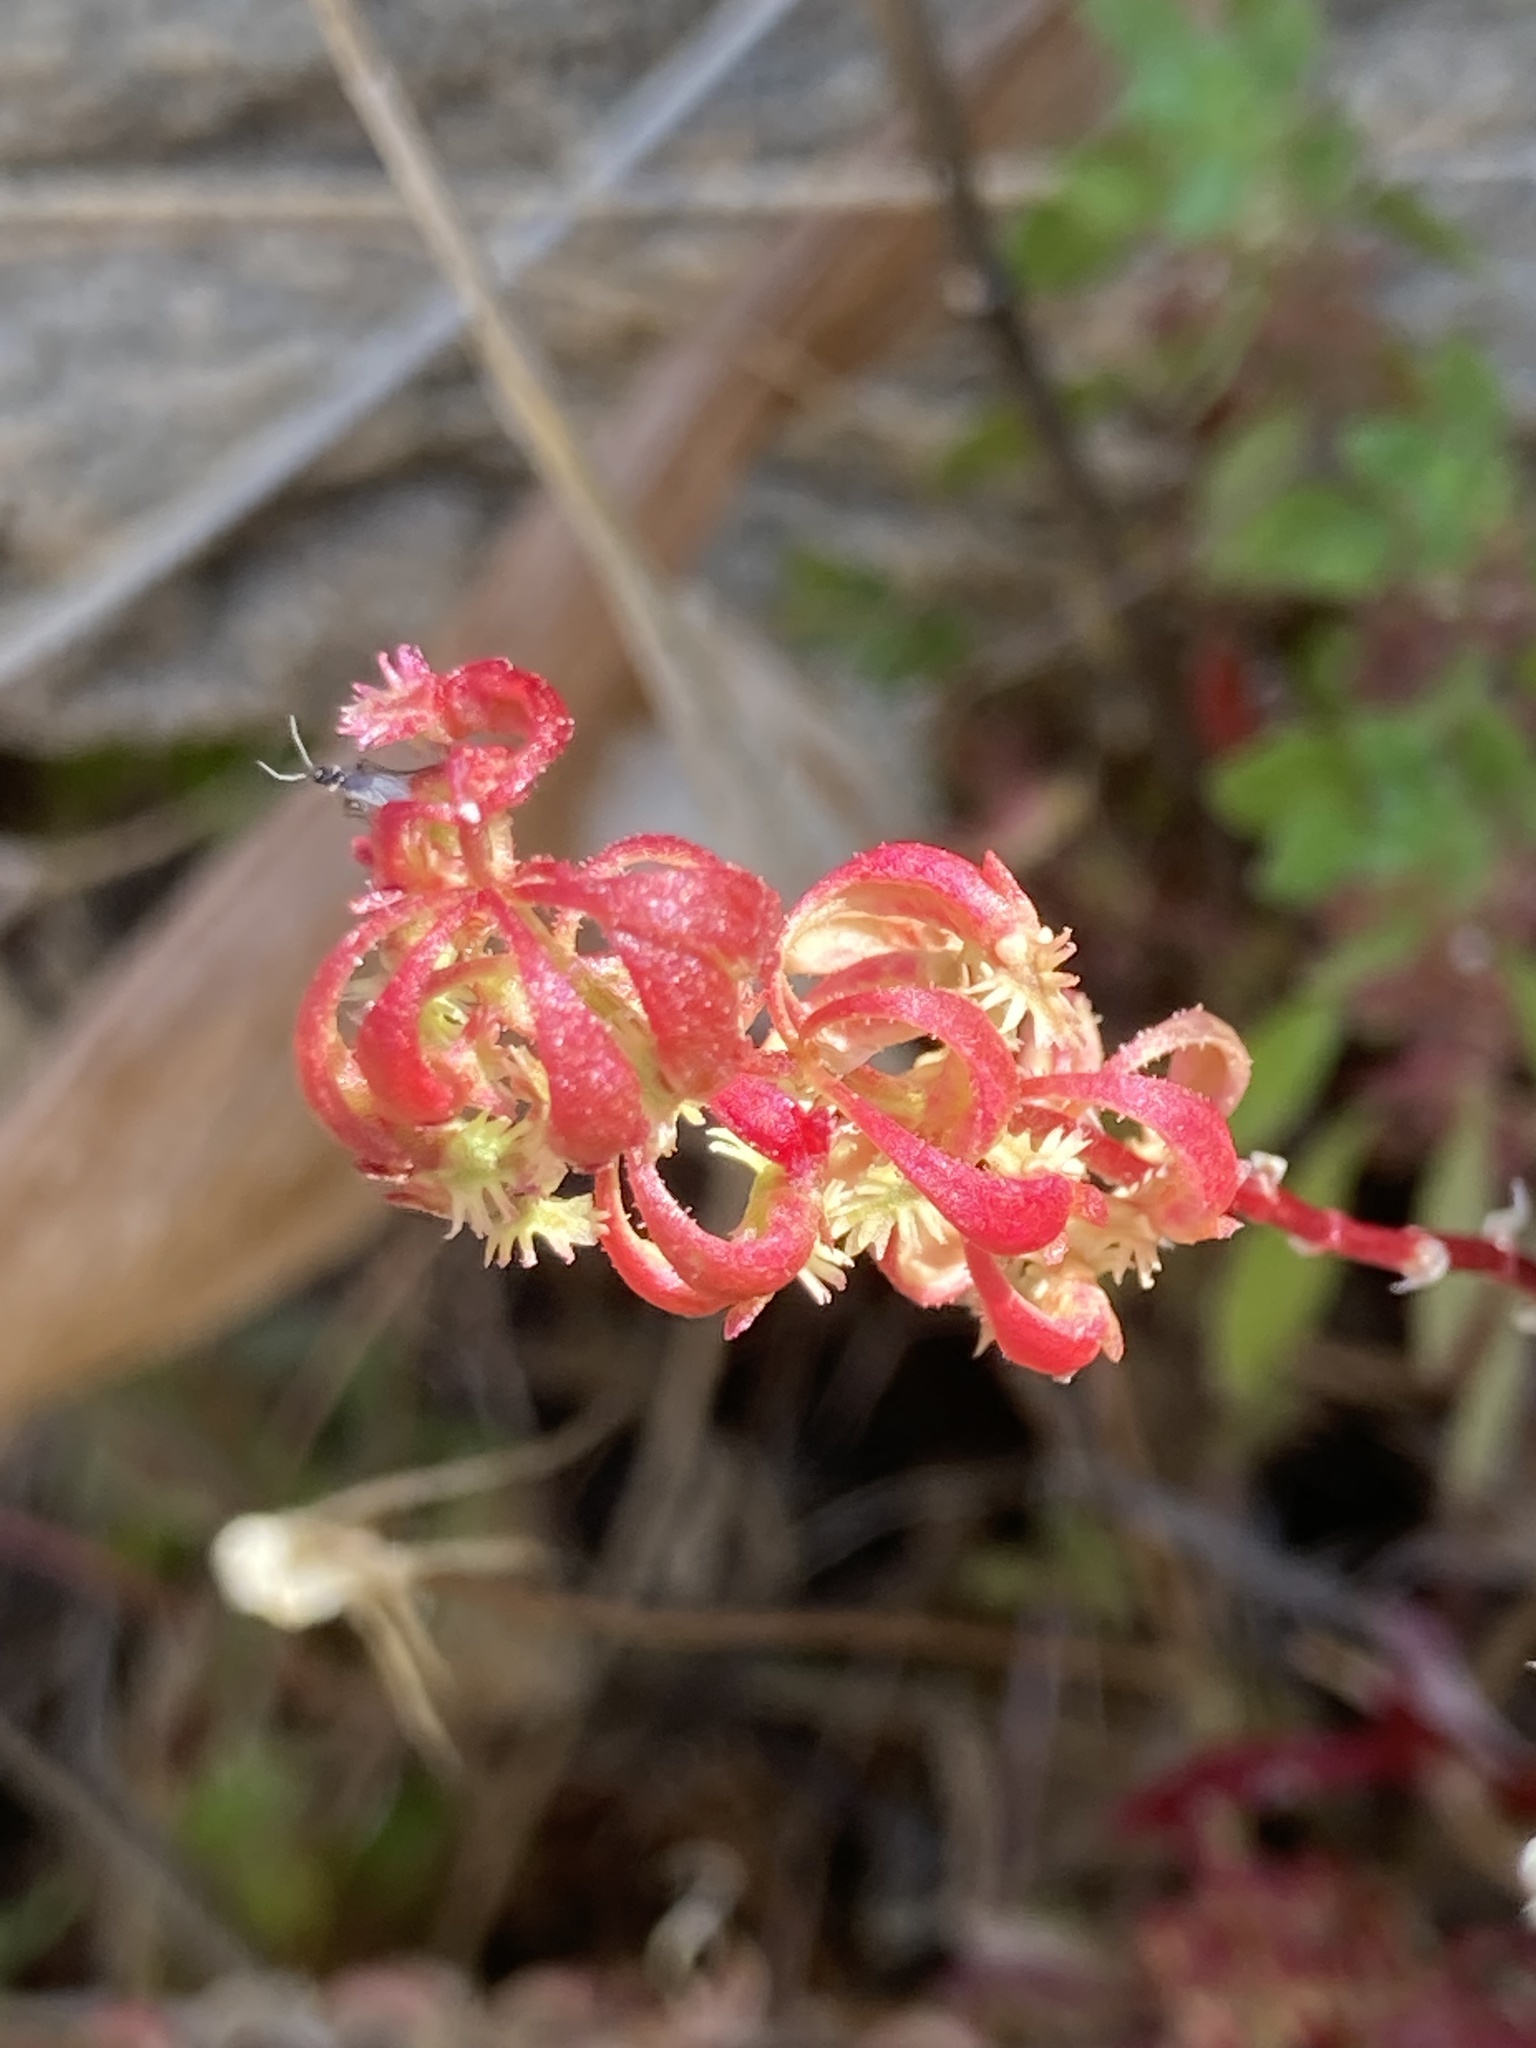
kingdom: Plantae
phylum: Tracheophyta
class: Magnoliopsida
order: Caryophyllales
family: Polygonaceae
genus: Rumex
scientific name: Rumex bucephalophorus
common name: Red dock
